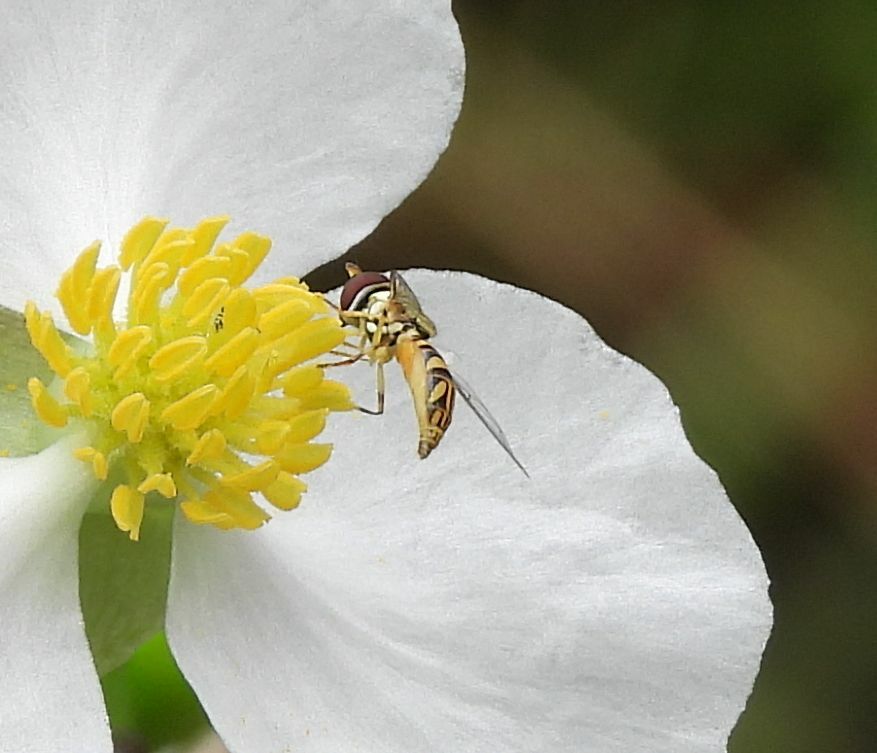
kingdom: Animalia
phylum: Arthropoda
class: Insecta
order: Diptera
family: Syrphidae
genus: Allograpta
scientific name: Allograpta obliqua
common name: Common oblique syrphid
